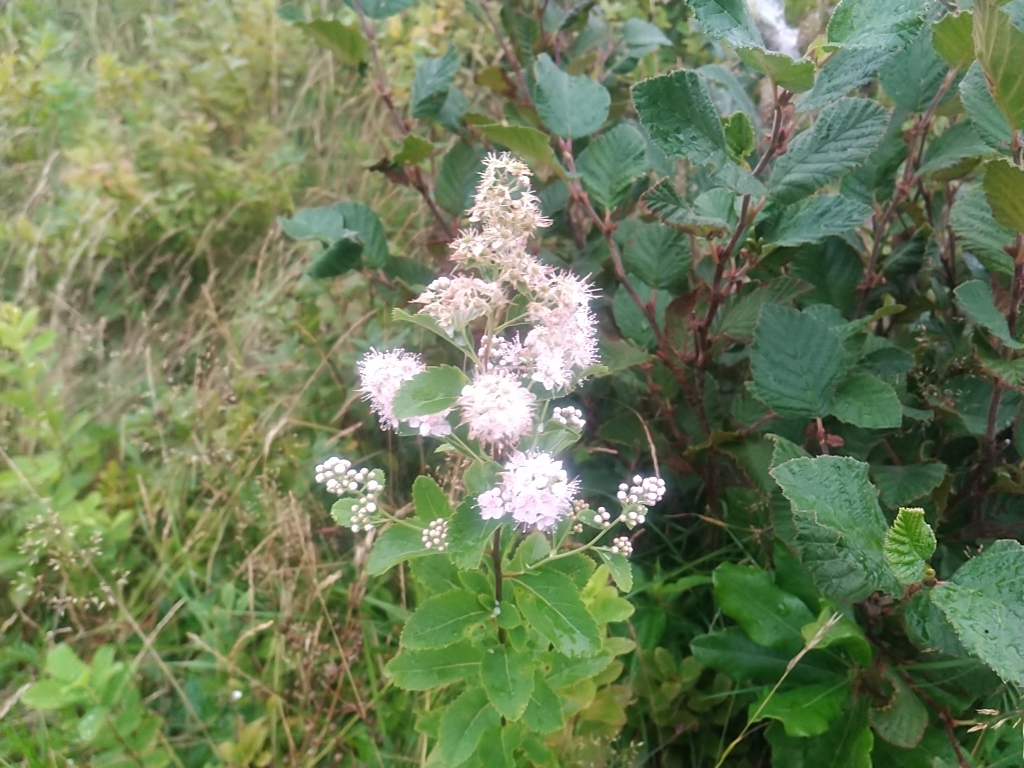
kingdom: Plantae
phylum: Tracheophyta
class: Magnoliopsida
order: Rosales
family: Rosaceae
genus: Spiraea
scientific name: Spiraea alba
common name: Pale bridewort
